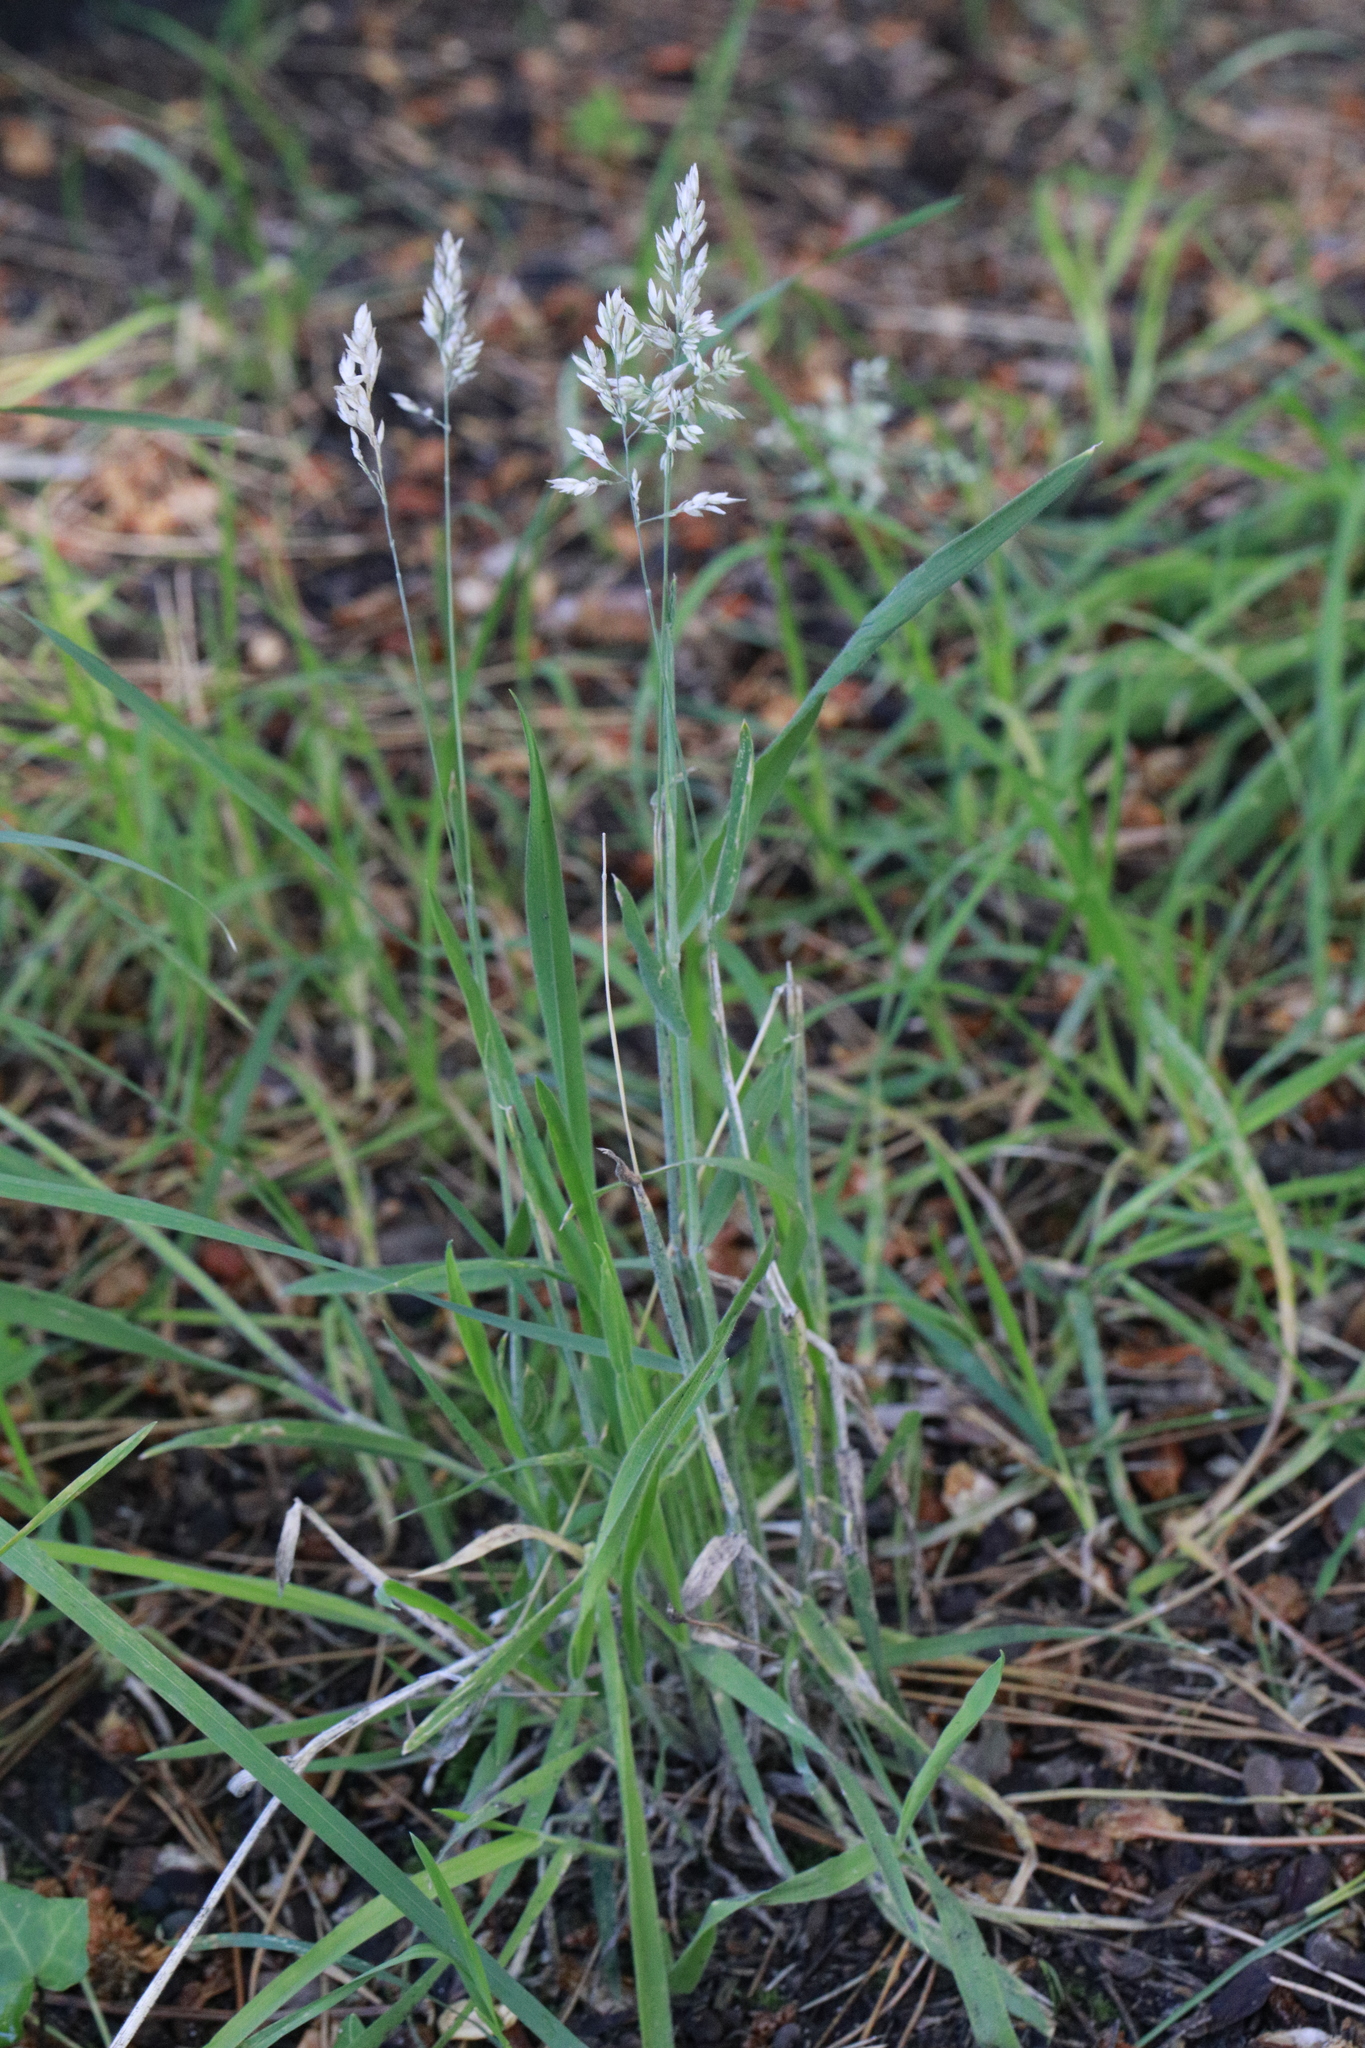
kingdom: Plantae
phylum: Tracheophyta
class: Liliopsida
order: Poales
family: Poaceae
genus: Holcus
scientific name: Holcus lanatus
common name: Yorkshire-fog
